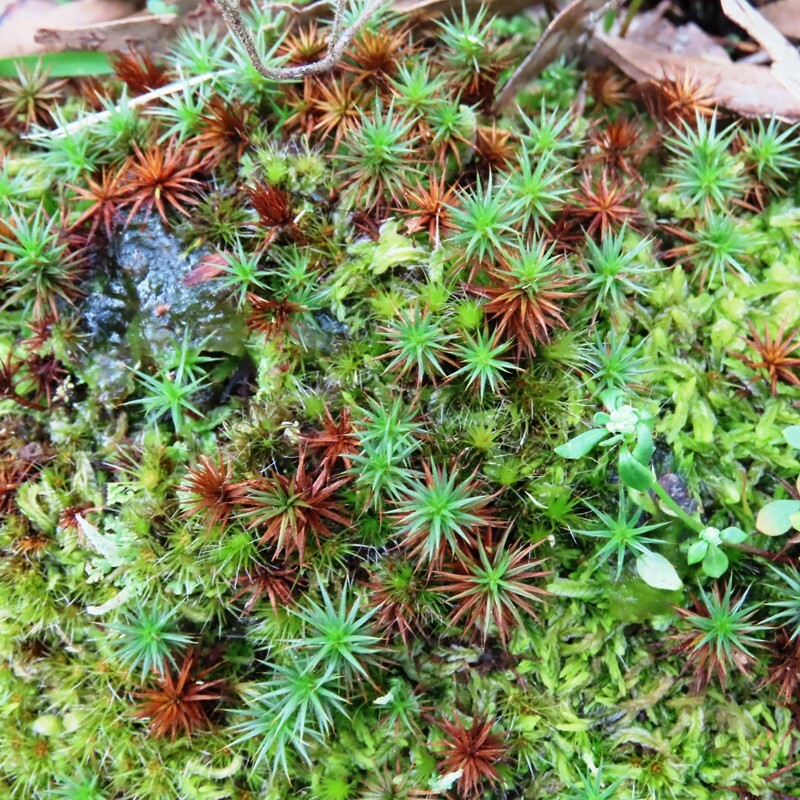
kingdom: Plantae
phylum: Bryophyta
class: Polytrichopsida
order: Polytrichales
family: Polytrichaceae
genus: Polytrichum
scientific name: Polytrichum juniperinum
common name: Juniper haircap moss
